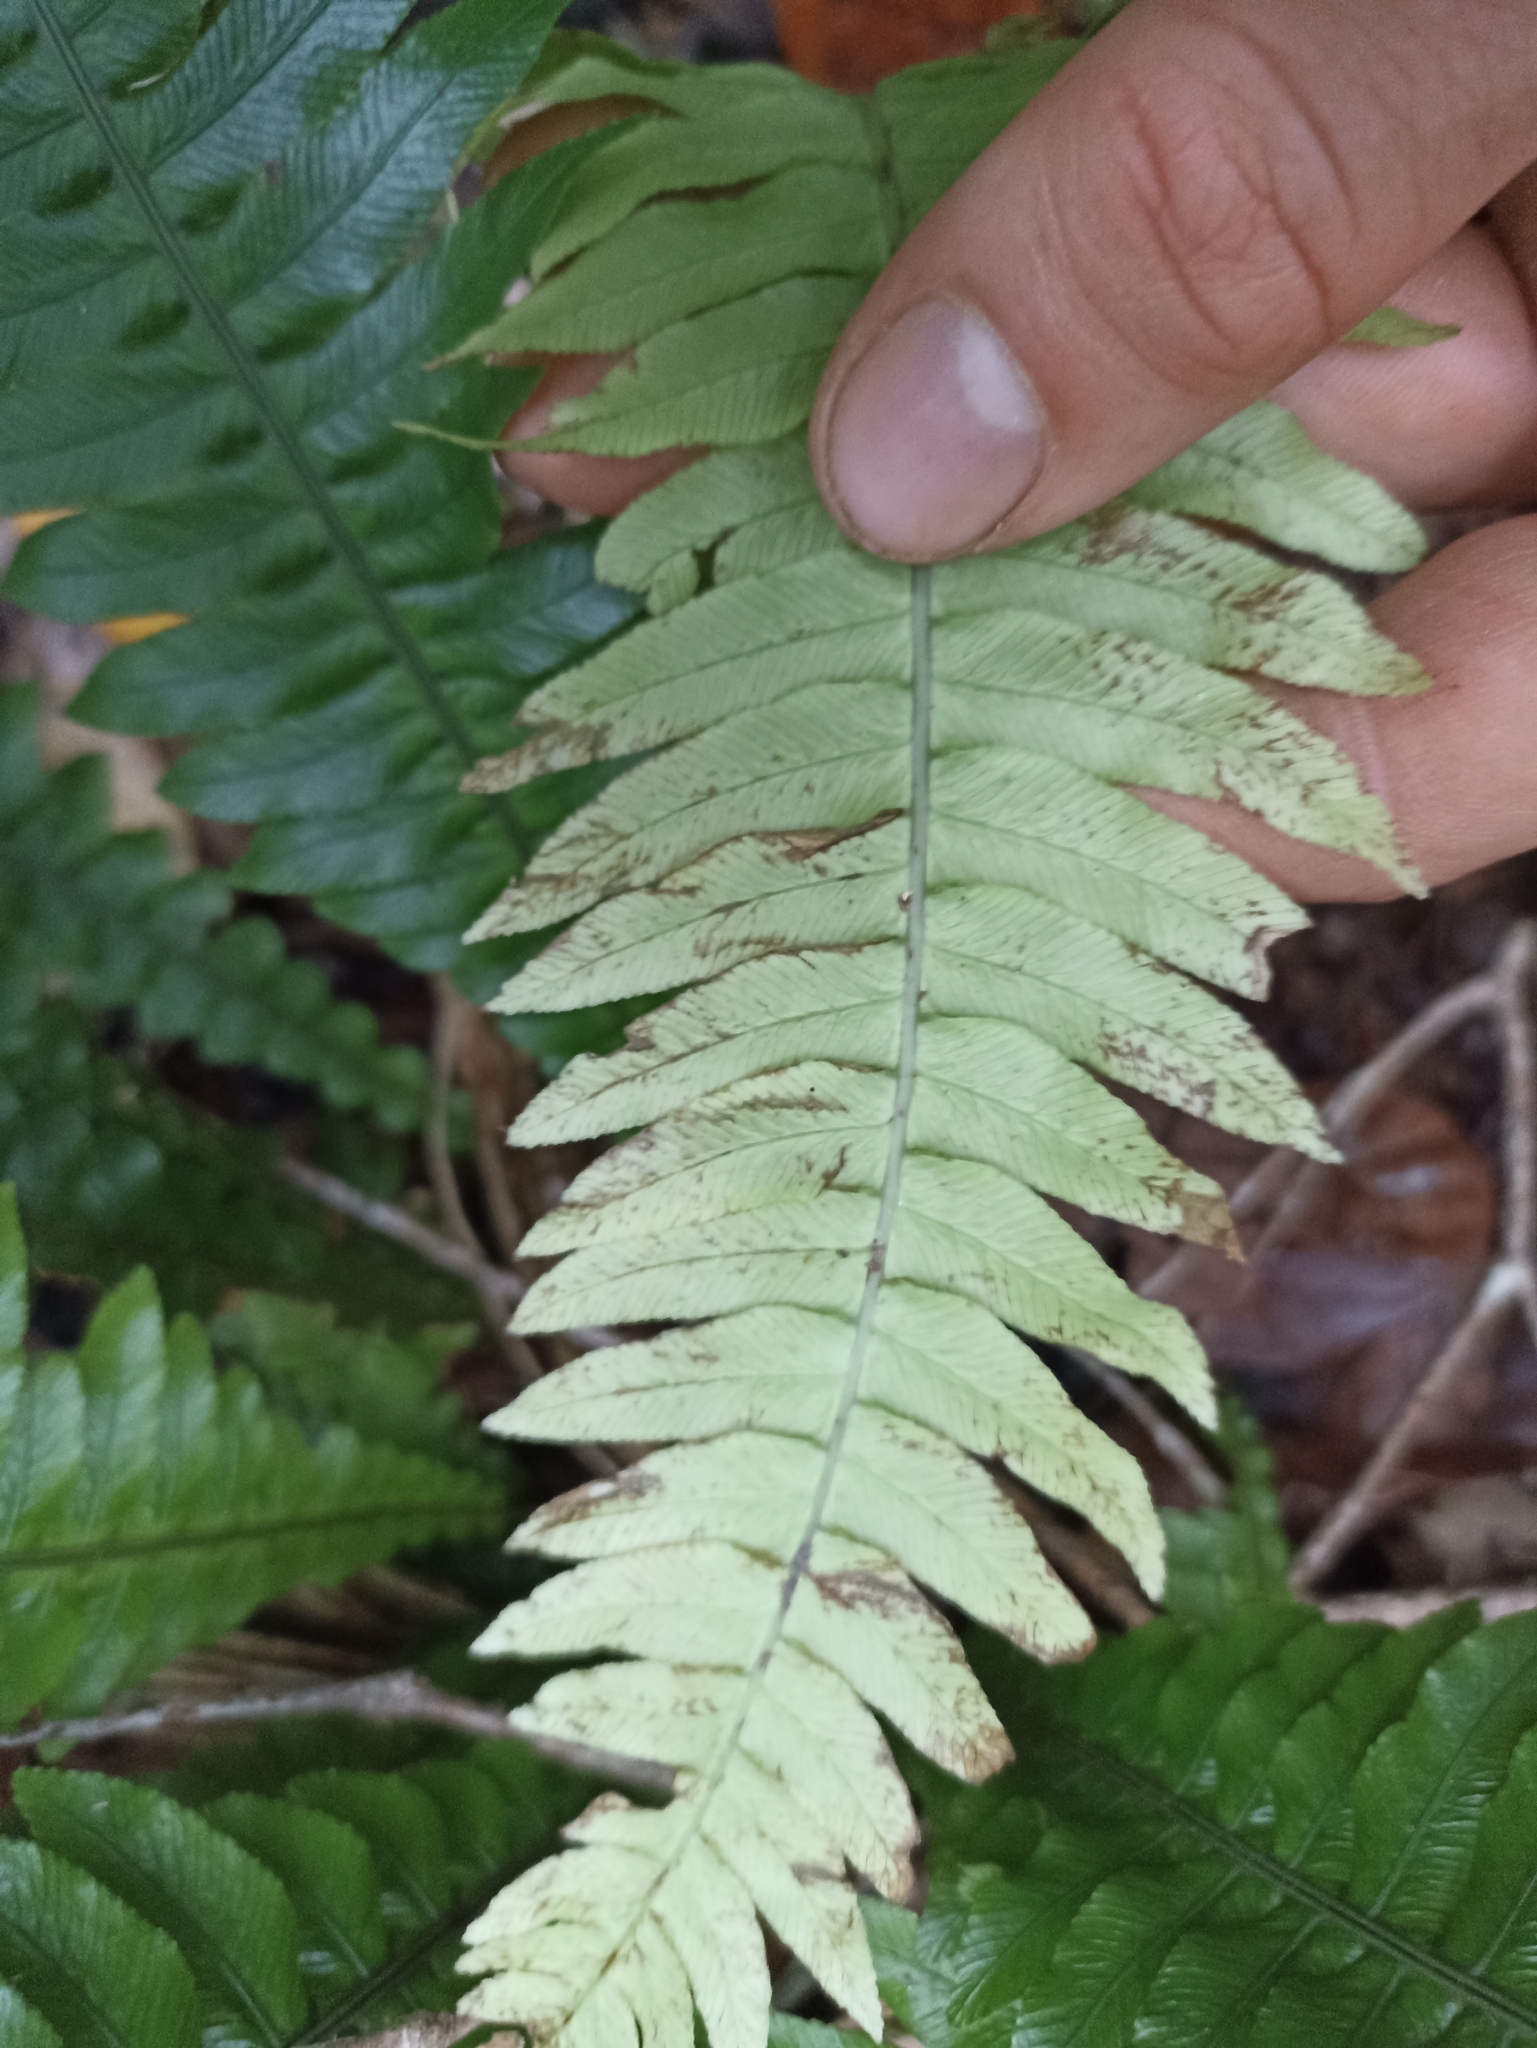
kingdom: Plantae
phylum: Tracheophyta
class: Polypodiopsida
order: Polypodiales
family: Blechnaceae
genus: Austroblechnum
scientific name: Austroblechnum norfolkianum
